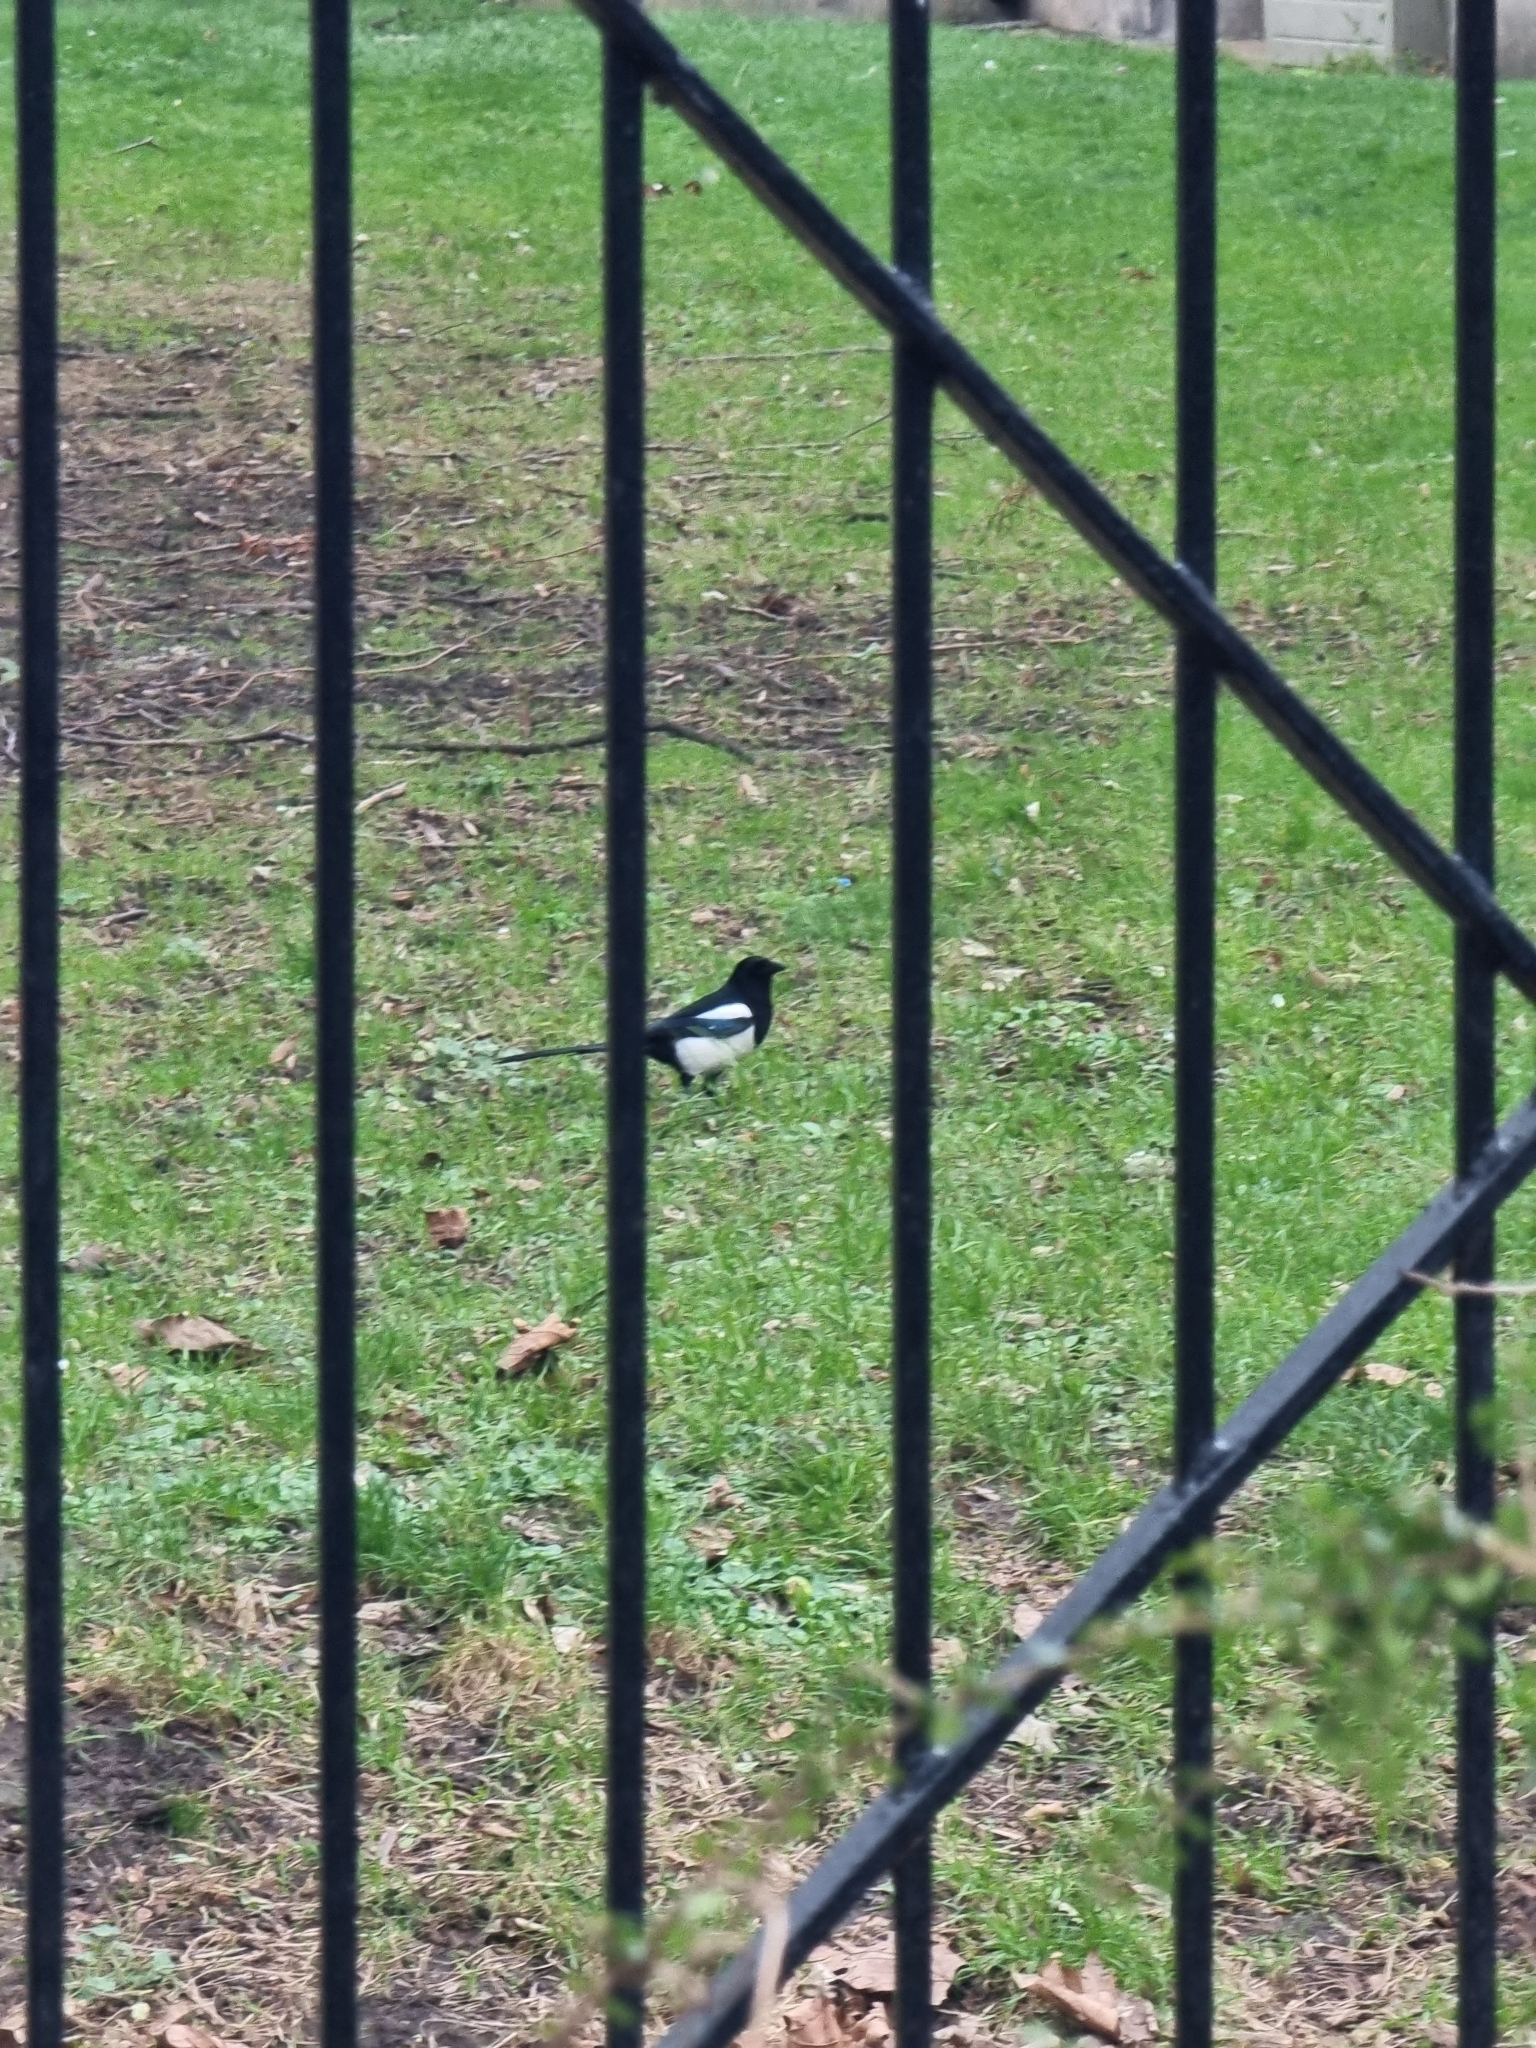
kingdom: Animalia
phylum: Chordata
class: Aves
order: Passeriformes
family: Corvidae
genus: Pica
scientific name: Pica pica
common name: Eurasian magpie
